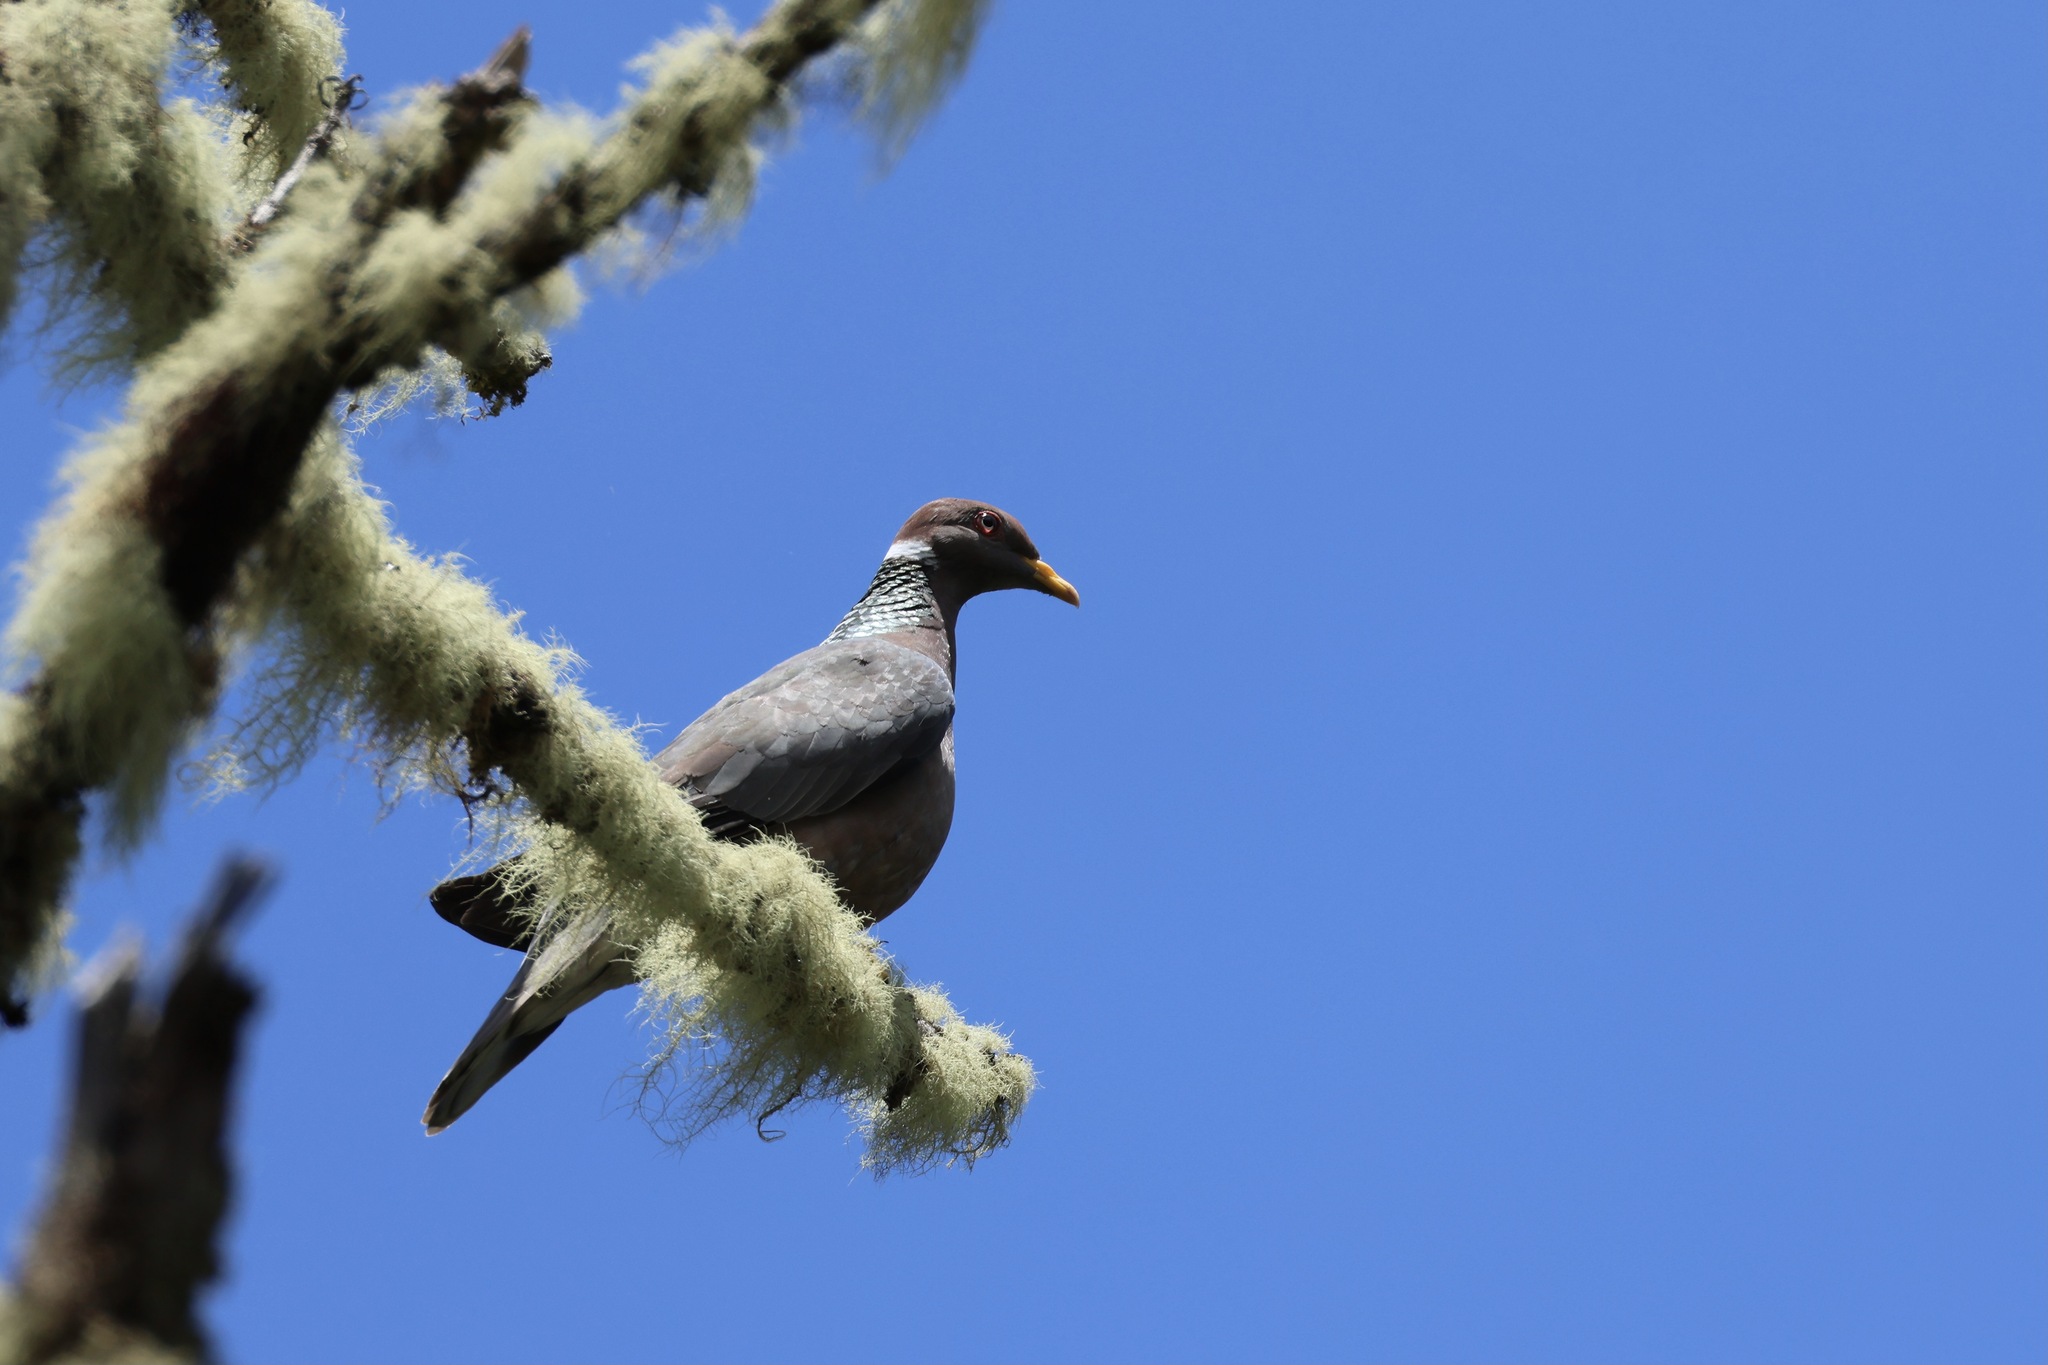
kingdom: Animalia
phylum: Chordata
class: Aves
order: Columbiformes
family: Columbidae
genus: Patagioenas
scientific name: Patagioenas fasciata
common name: Band-tailed pigeon
